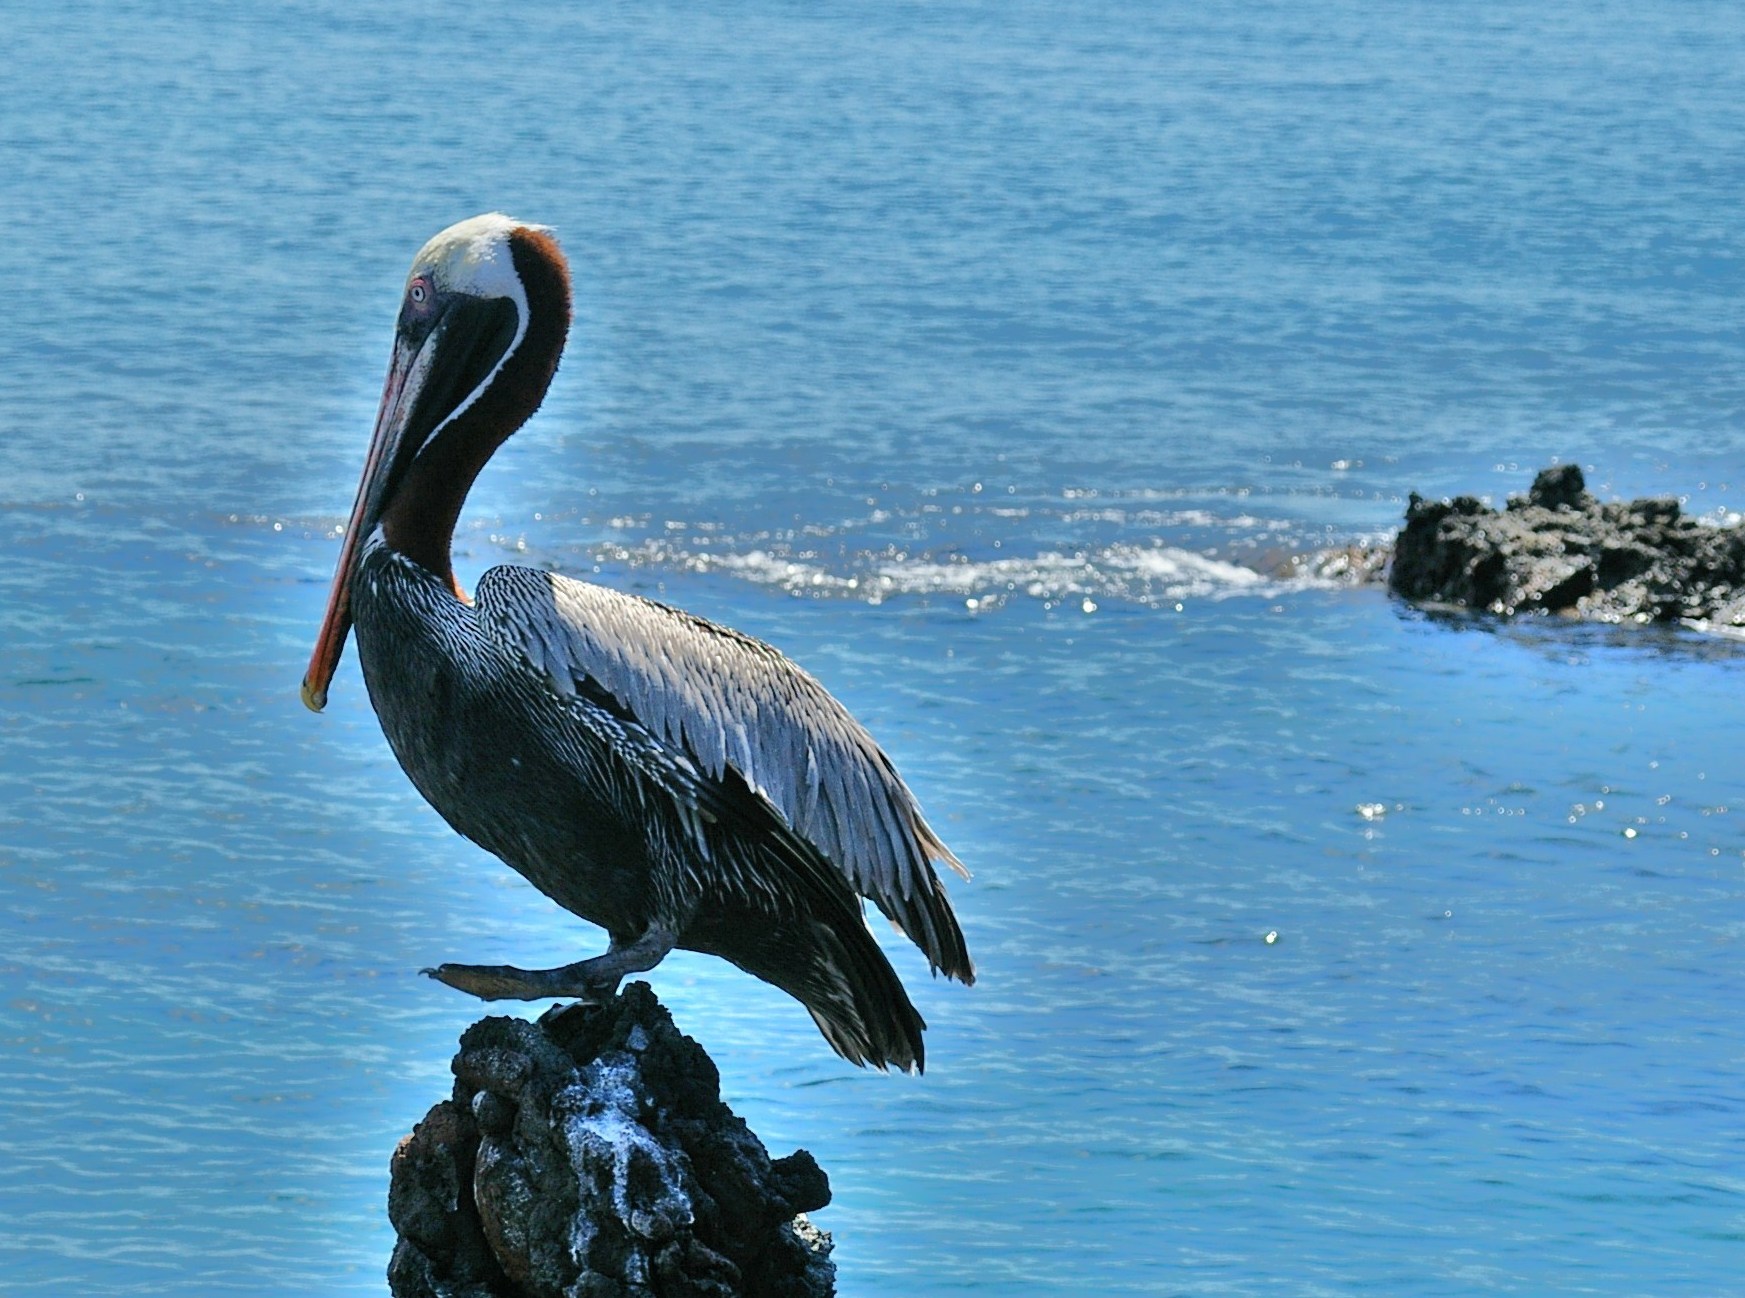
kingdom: Animalia
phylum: Chordata
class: Aves
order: Pelecaniformes
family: Pelecanidae
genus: Pelecanus
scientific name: Pelecanus occidentalis
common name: Brown pelican
